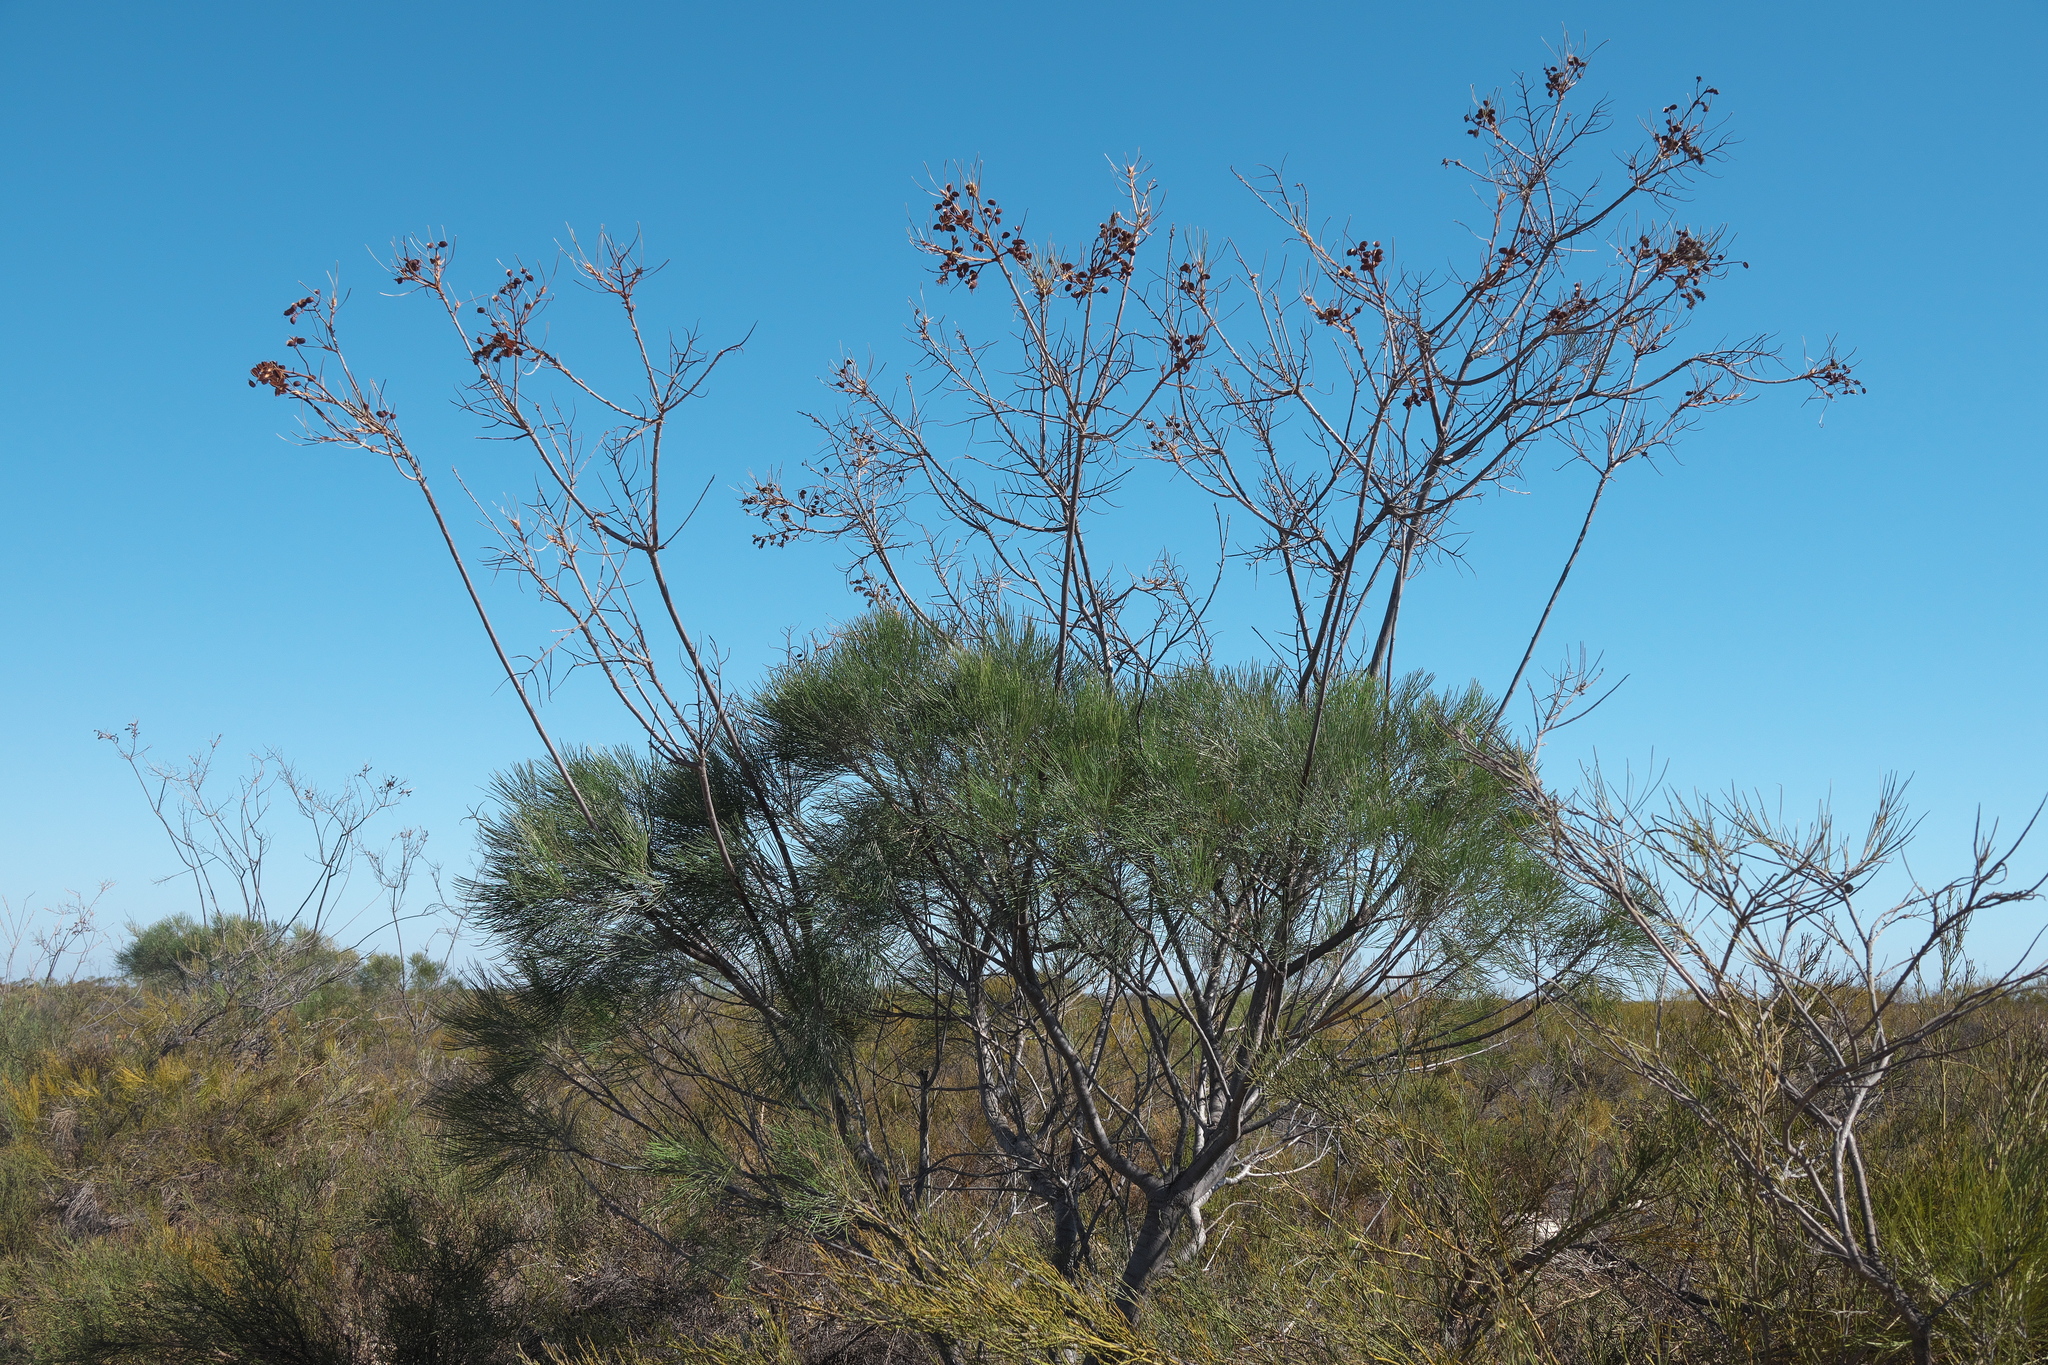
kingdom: Plantae
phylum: Tracheophyta
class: Magnoliopsida
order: Proteales
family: Proteaceae
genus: Grevillea
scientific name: Grevillea leucopteris
